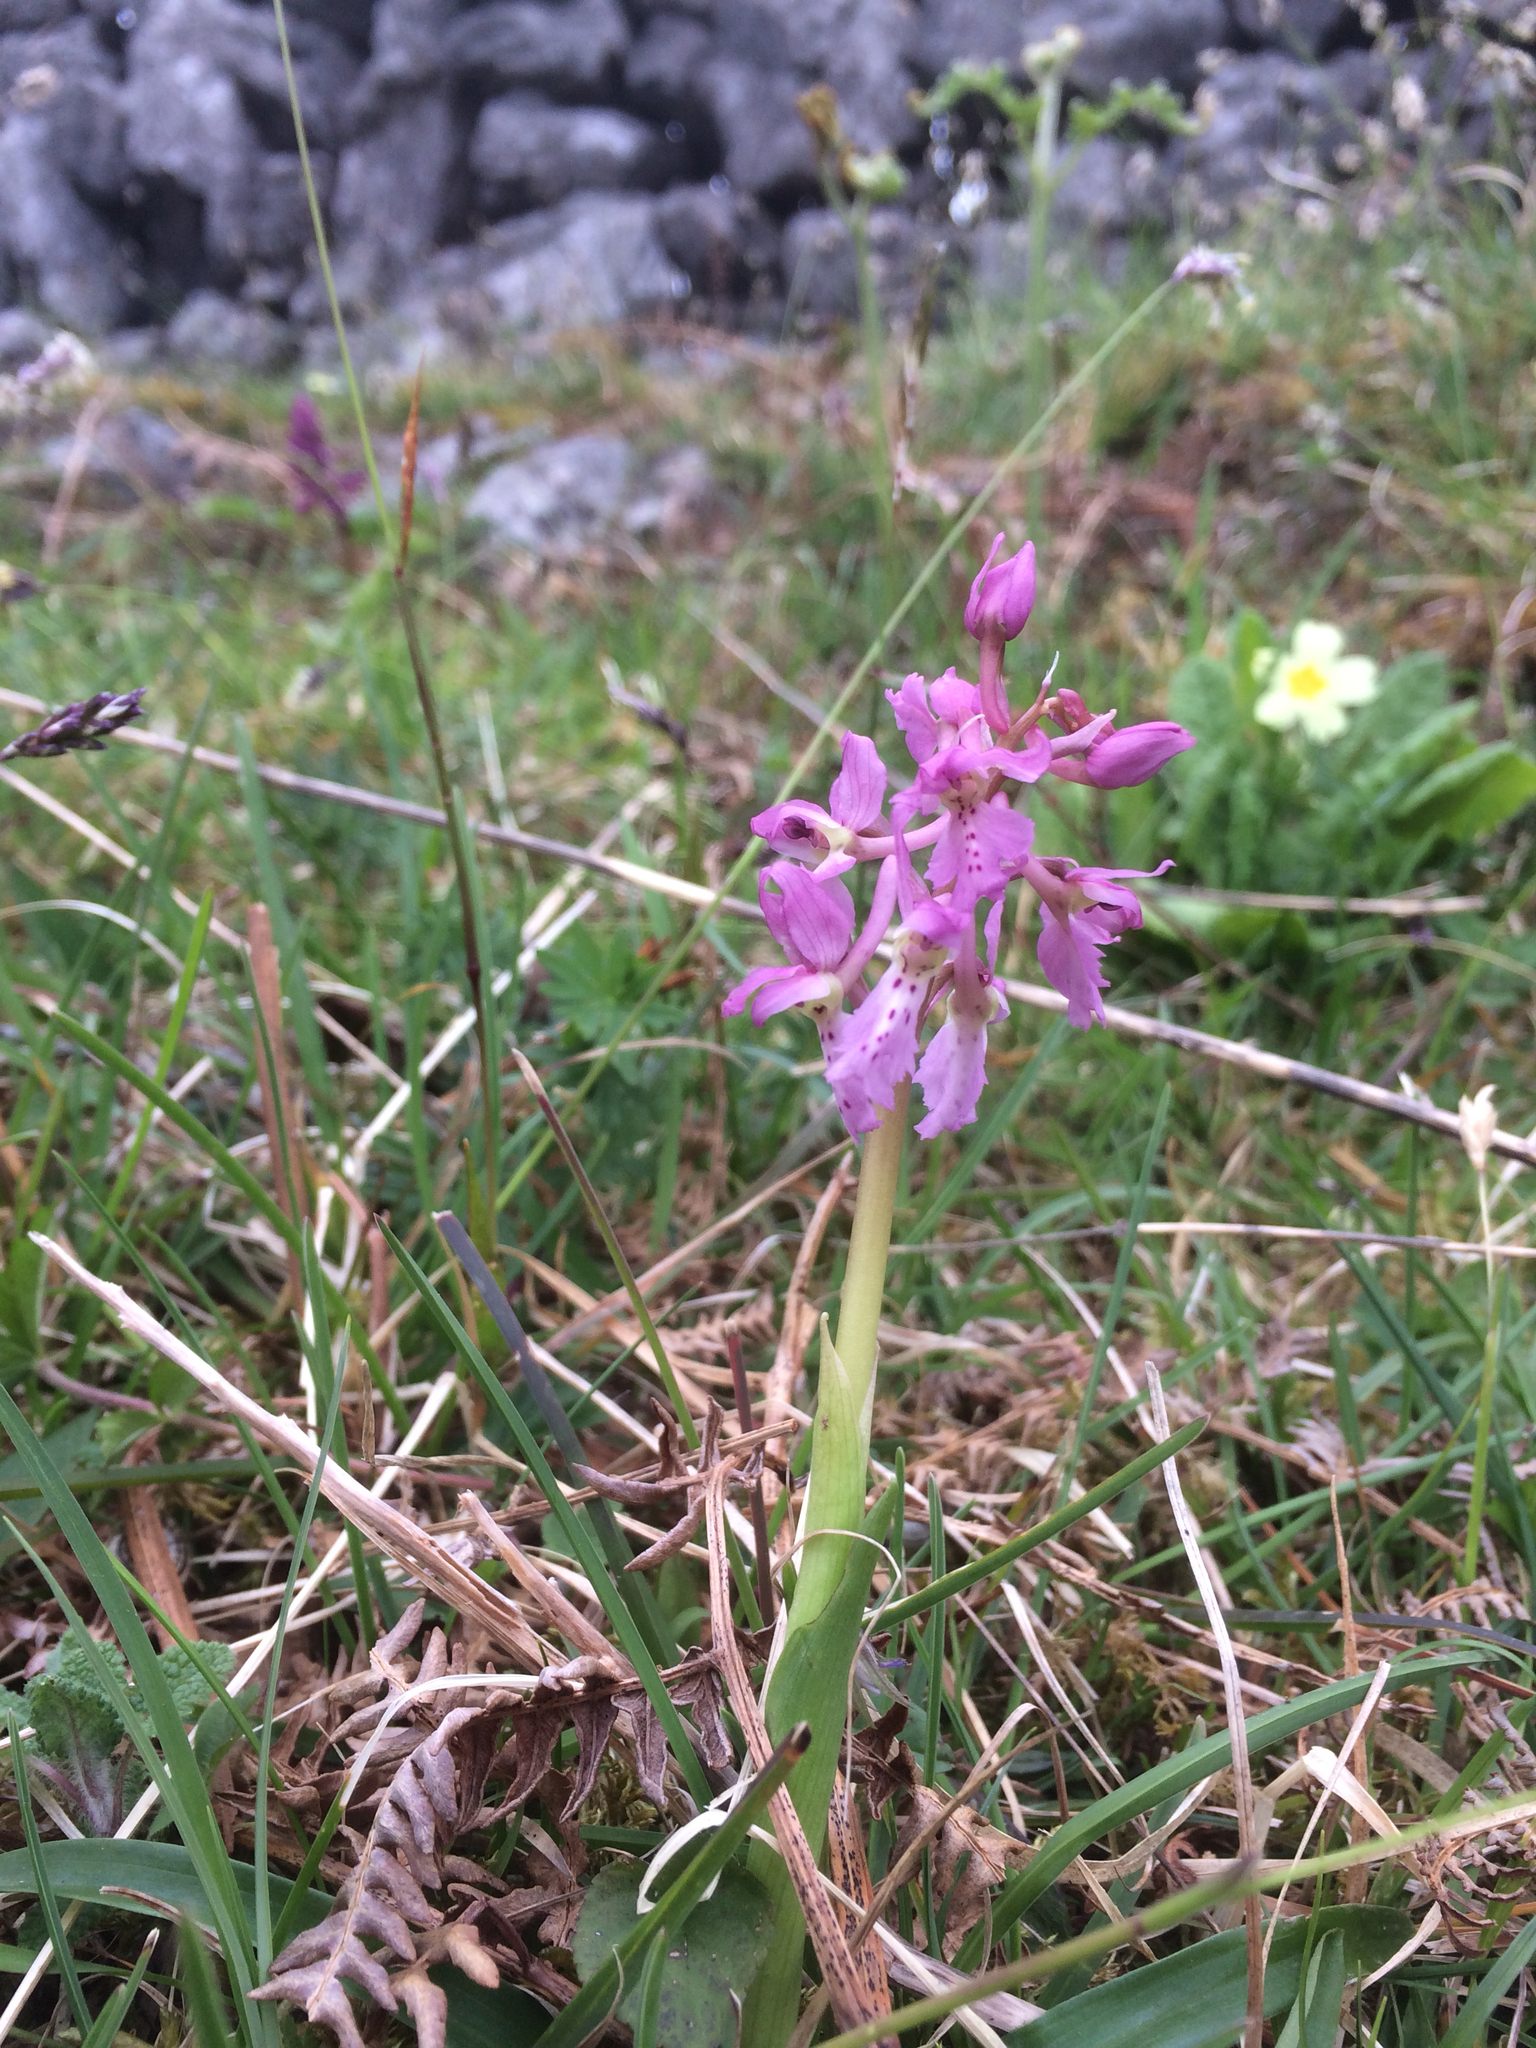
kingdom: Plantae
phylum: Tracheophyta
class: Liliopsida
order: Asparagales
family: Orchidaceae
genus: Orchis
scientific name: Orchis mascula
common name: Early-purple orchid
